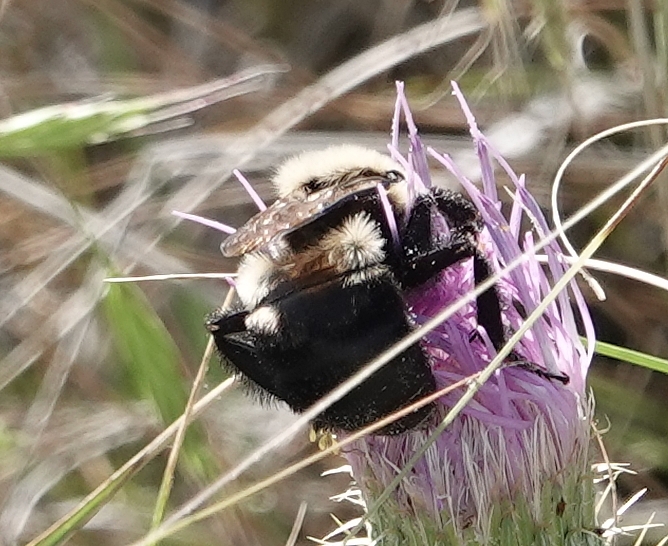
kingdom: Animalia
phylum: Arthropoda
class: Insecta
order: Hymenoptera
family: Apidae
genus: Bombus
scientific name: Bombus griseocollis
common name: Brown-belted bumble bee
